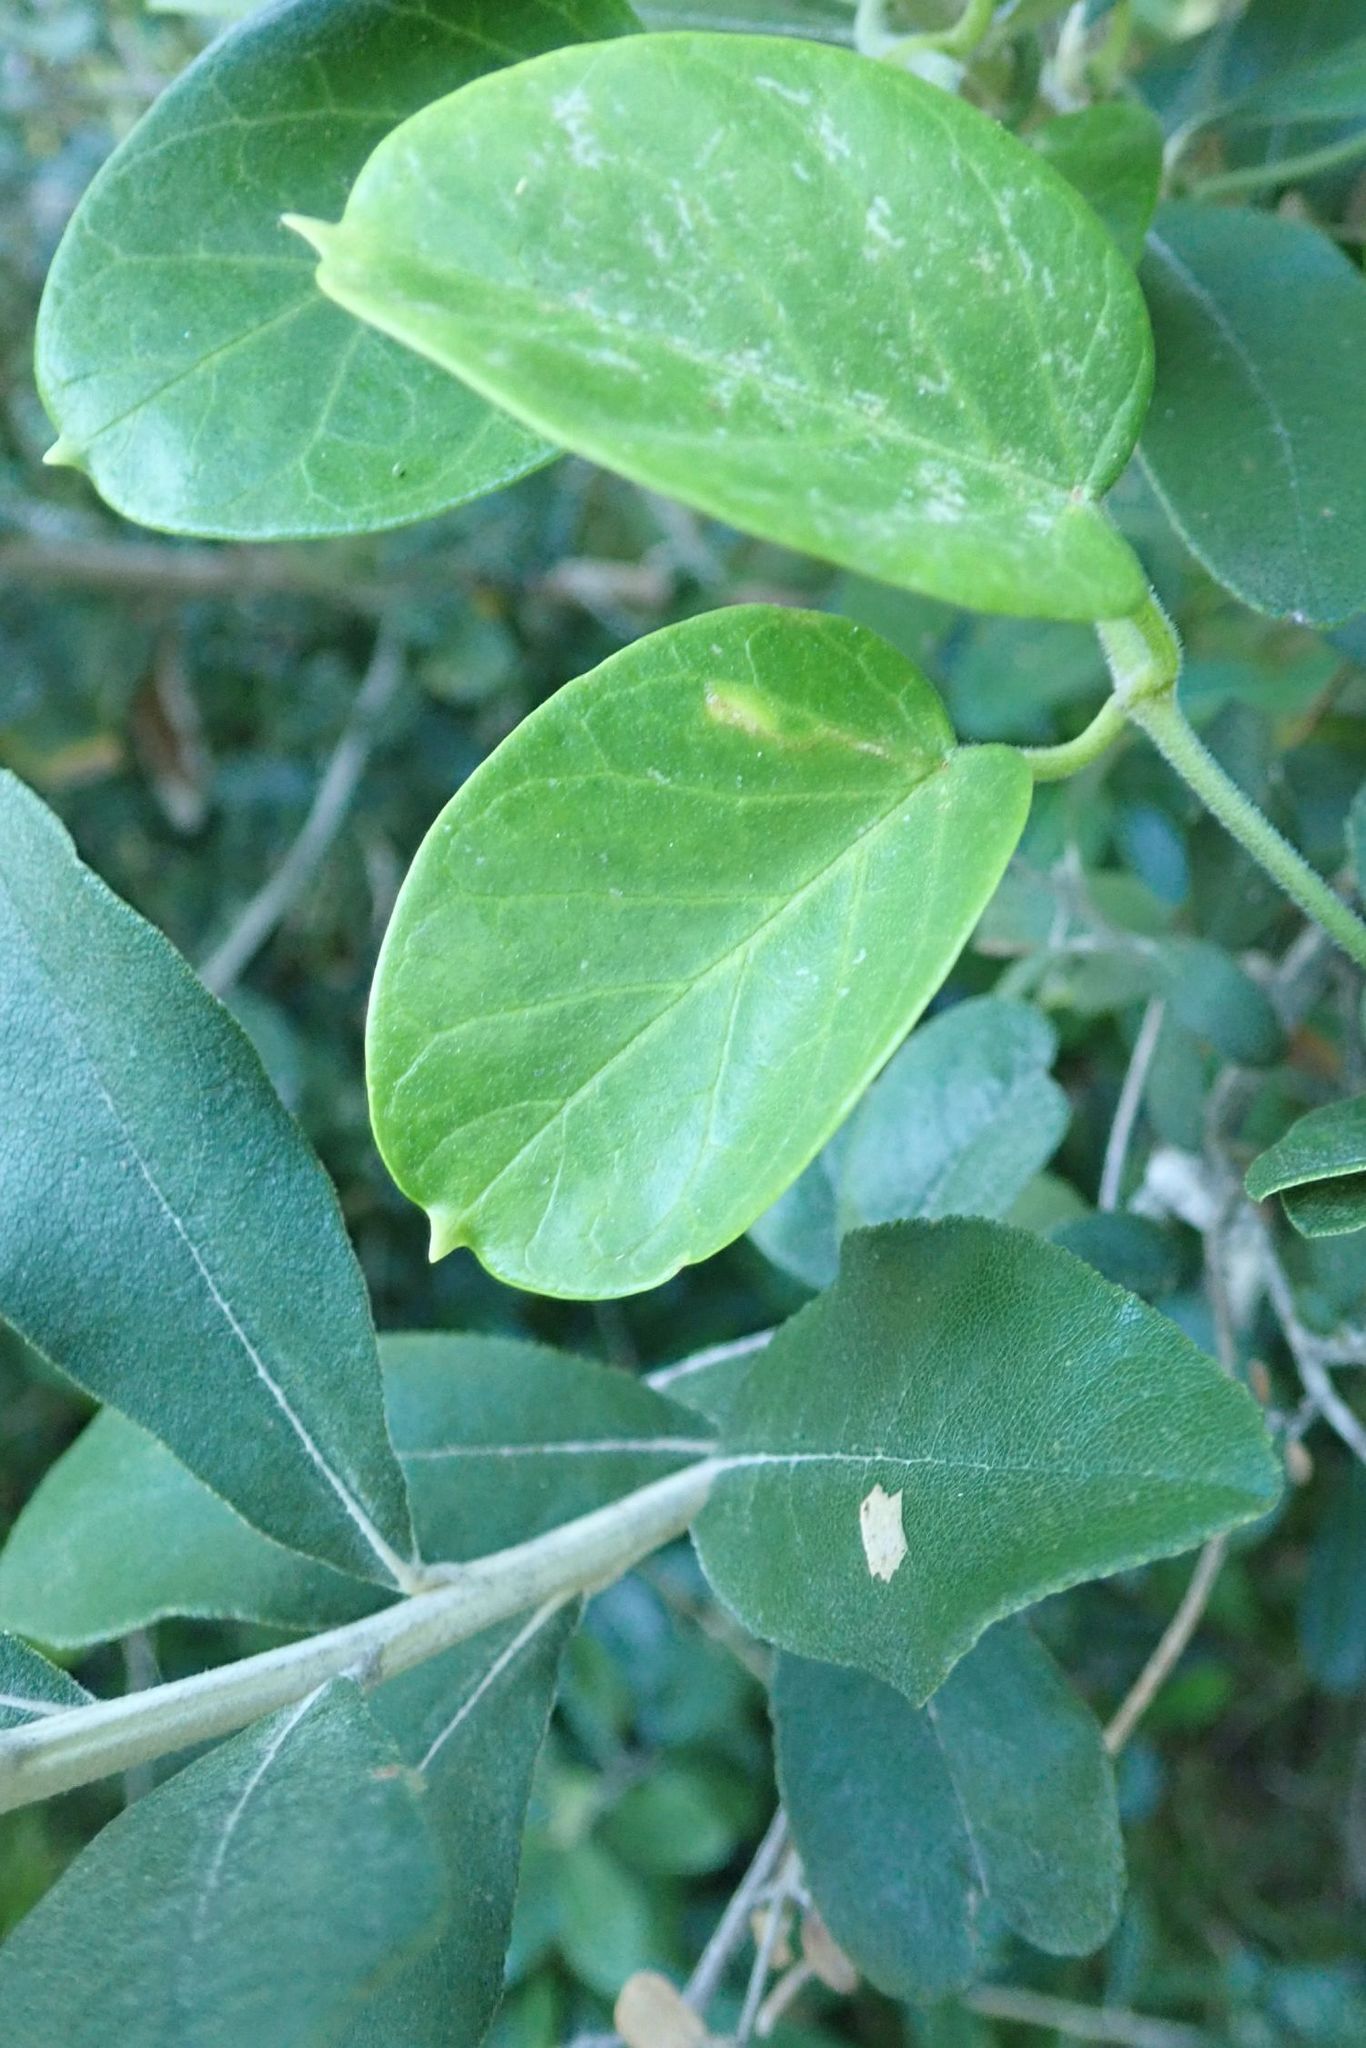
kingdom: Plantae
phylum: Tracheophyta
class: Magnoliopsida
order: Gentianales
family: Apocynaceae
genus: Cynanchum
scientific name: Cynanchum obtusifolium
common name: Monkey-rope
